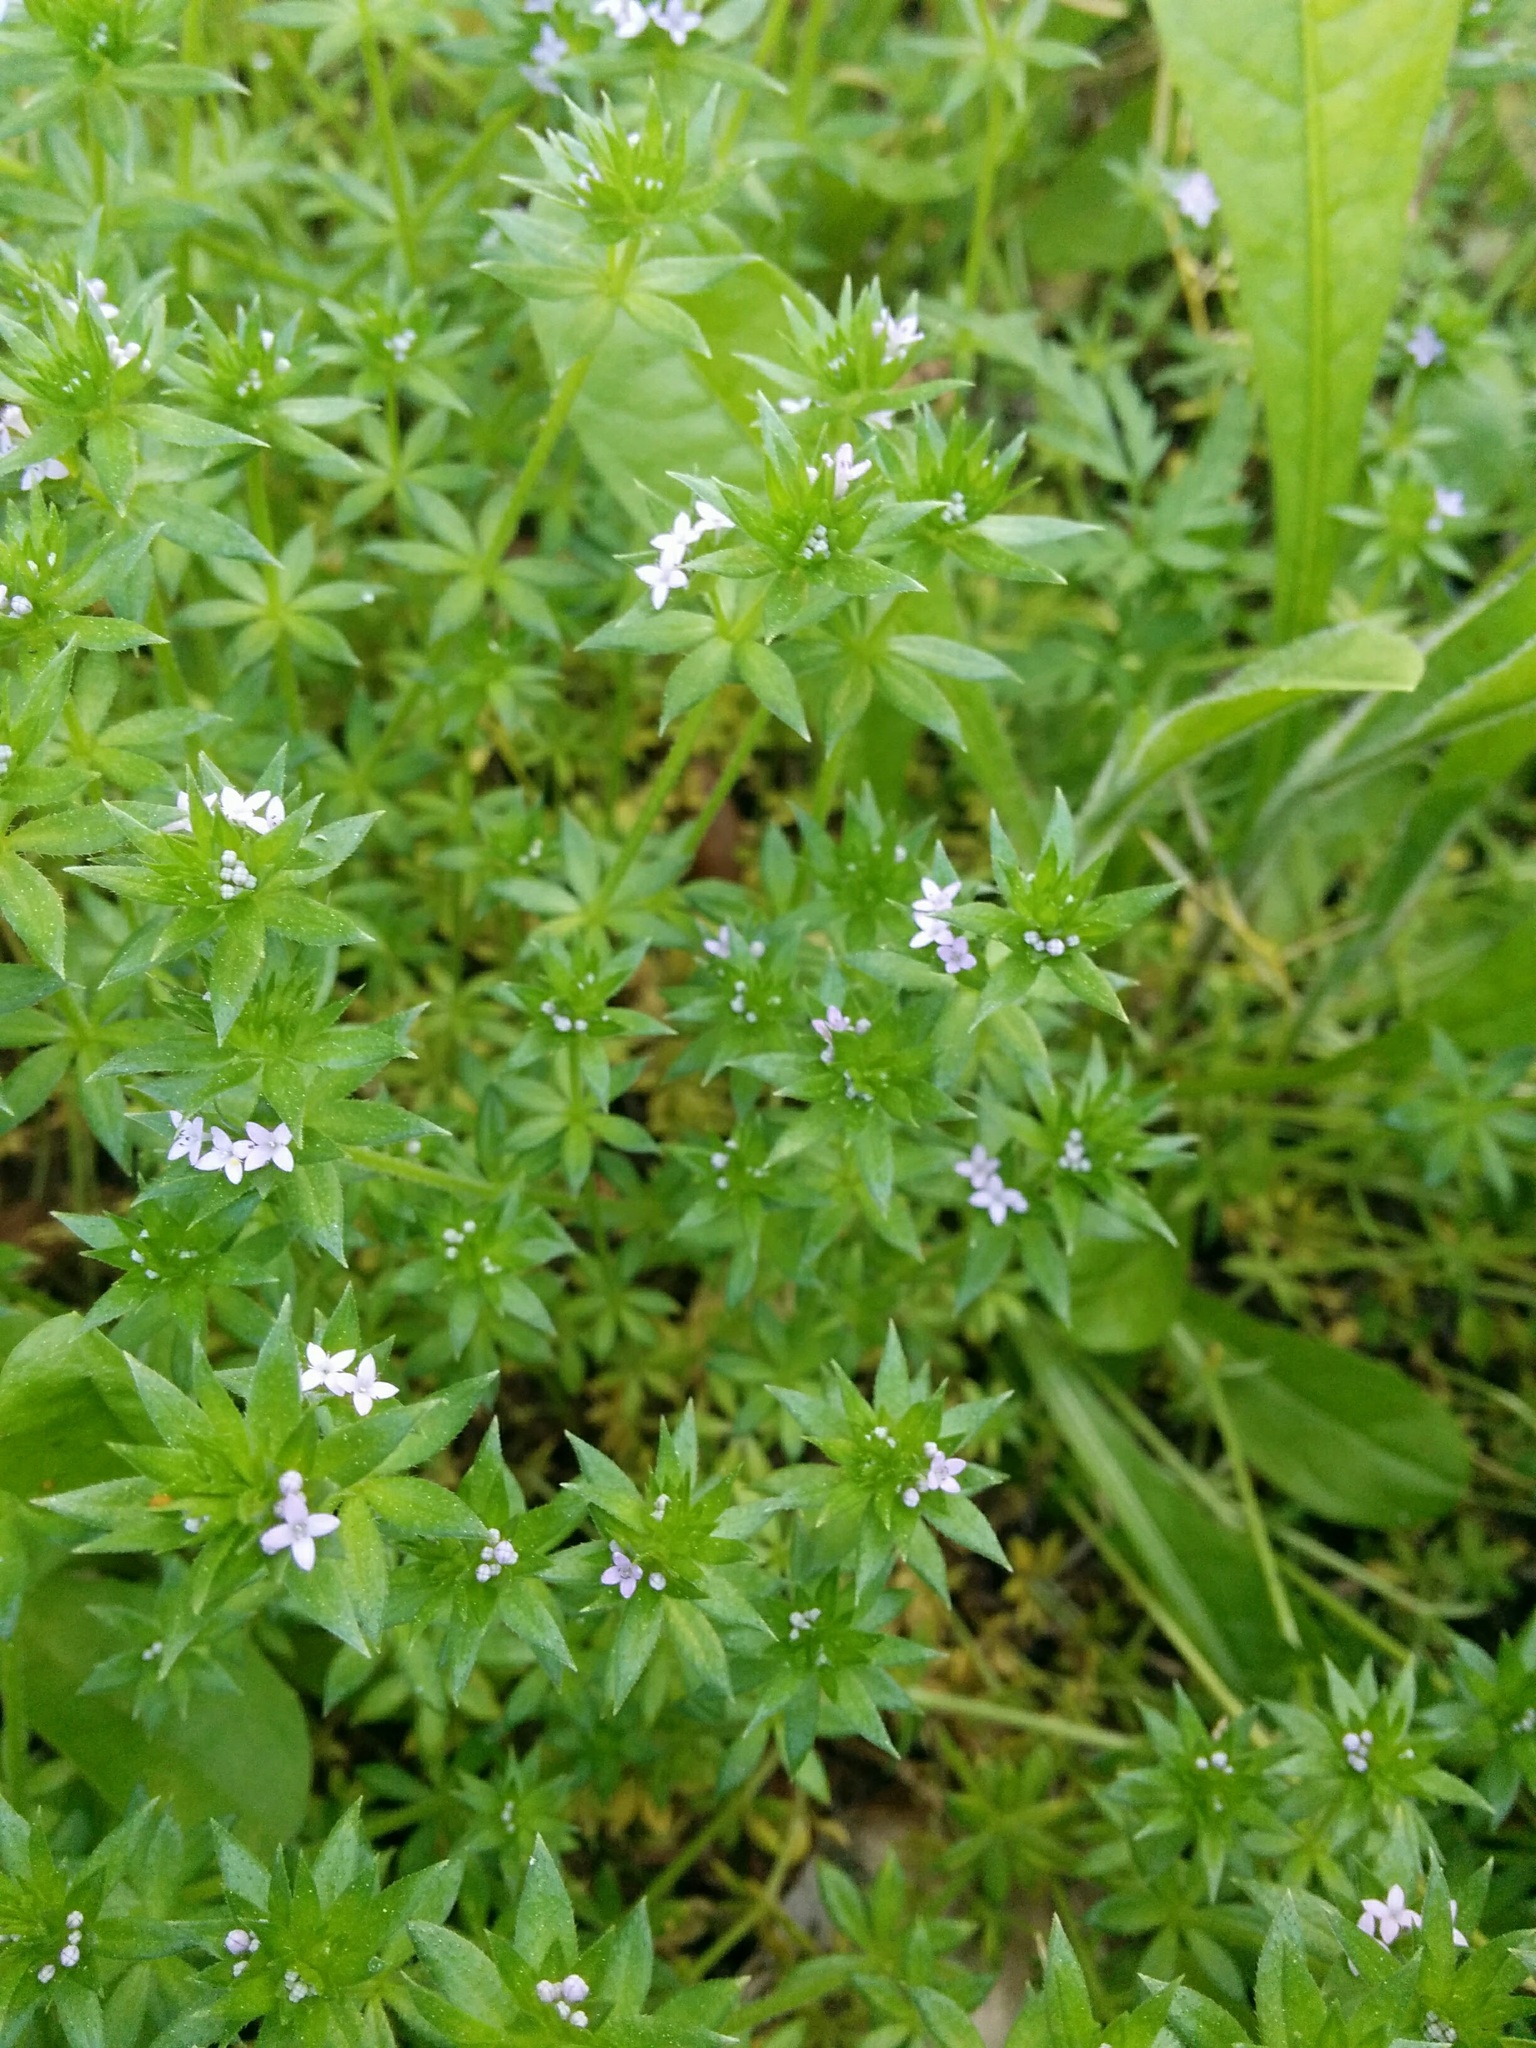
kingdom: Plantae
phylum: Tracheophyta
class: Magnoliopsida
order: Gentianales
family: Rubiaceae
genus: Sherardia
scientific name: Sherardia arvensis
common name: Field madder
